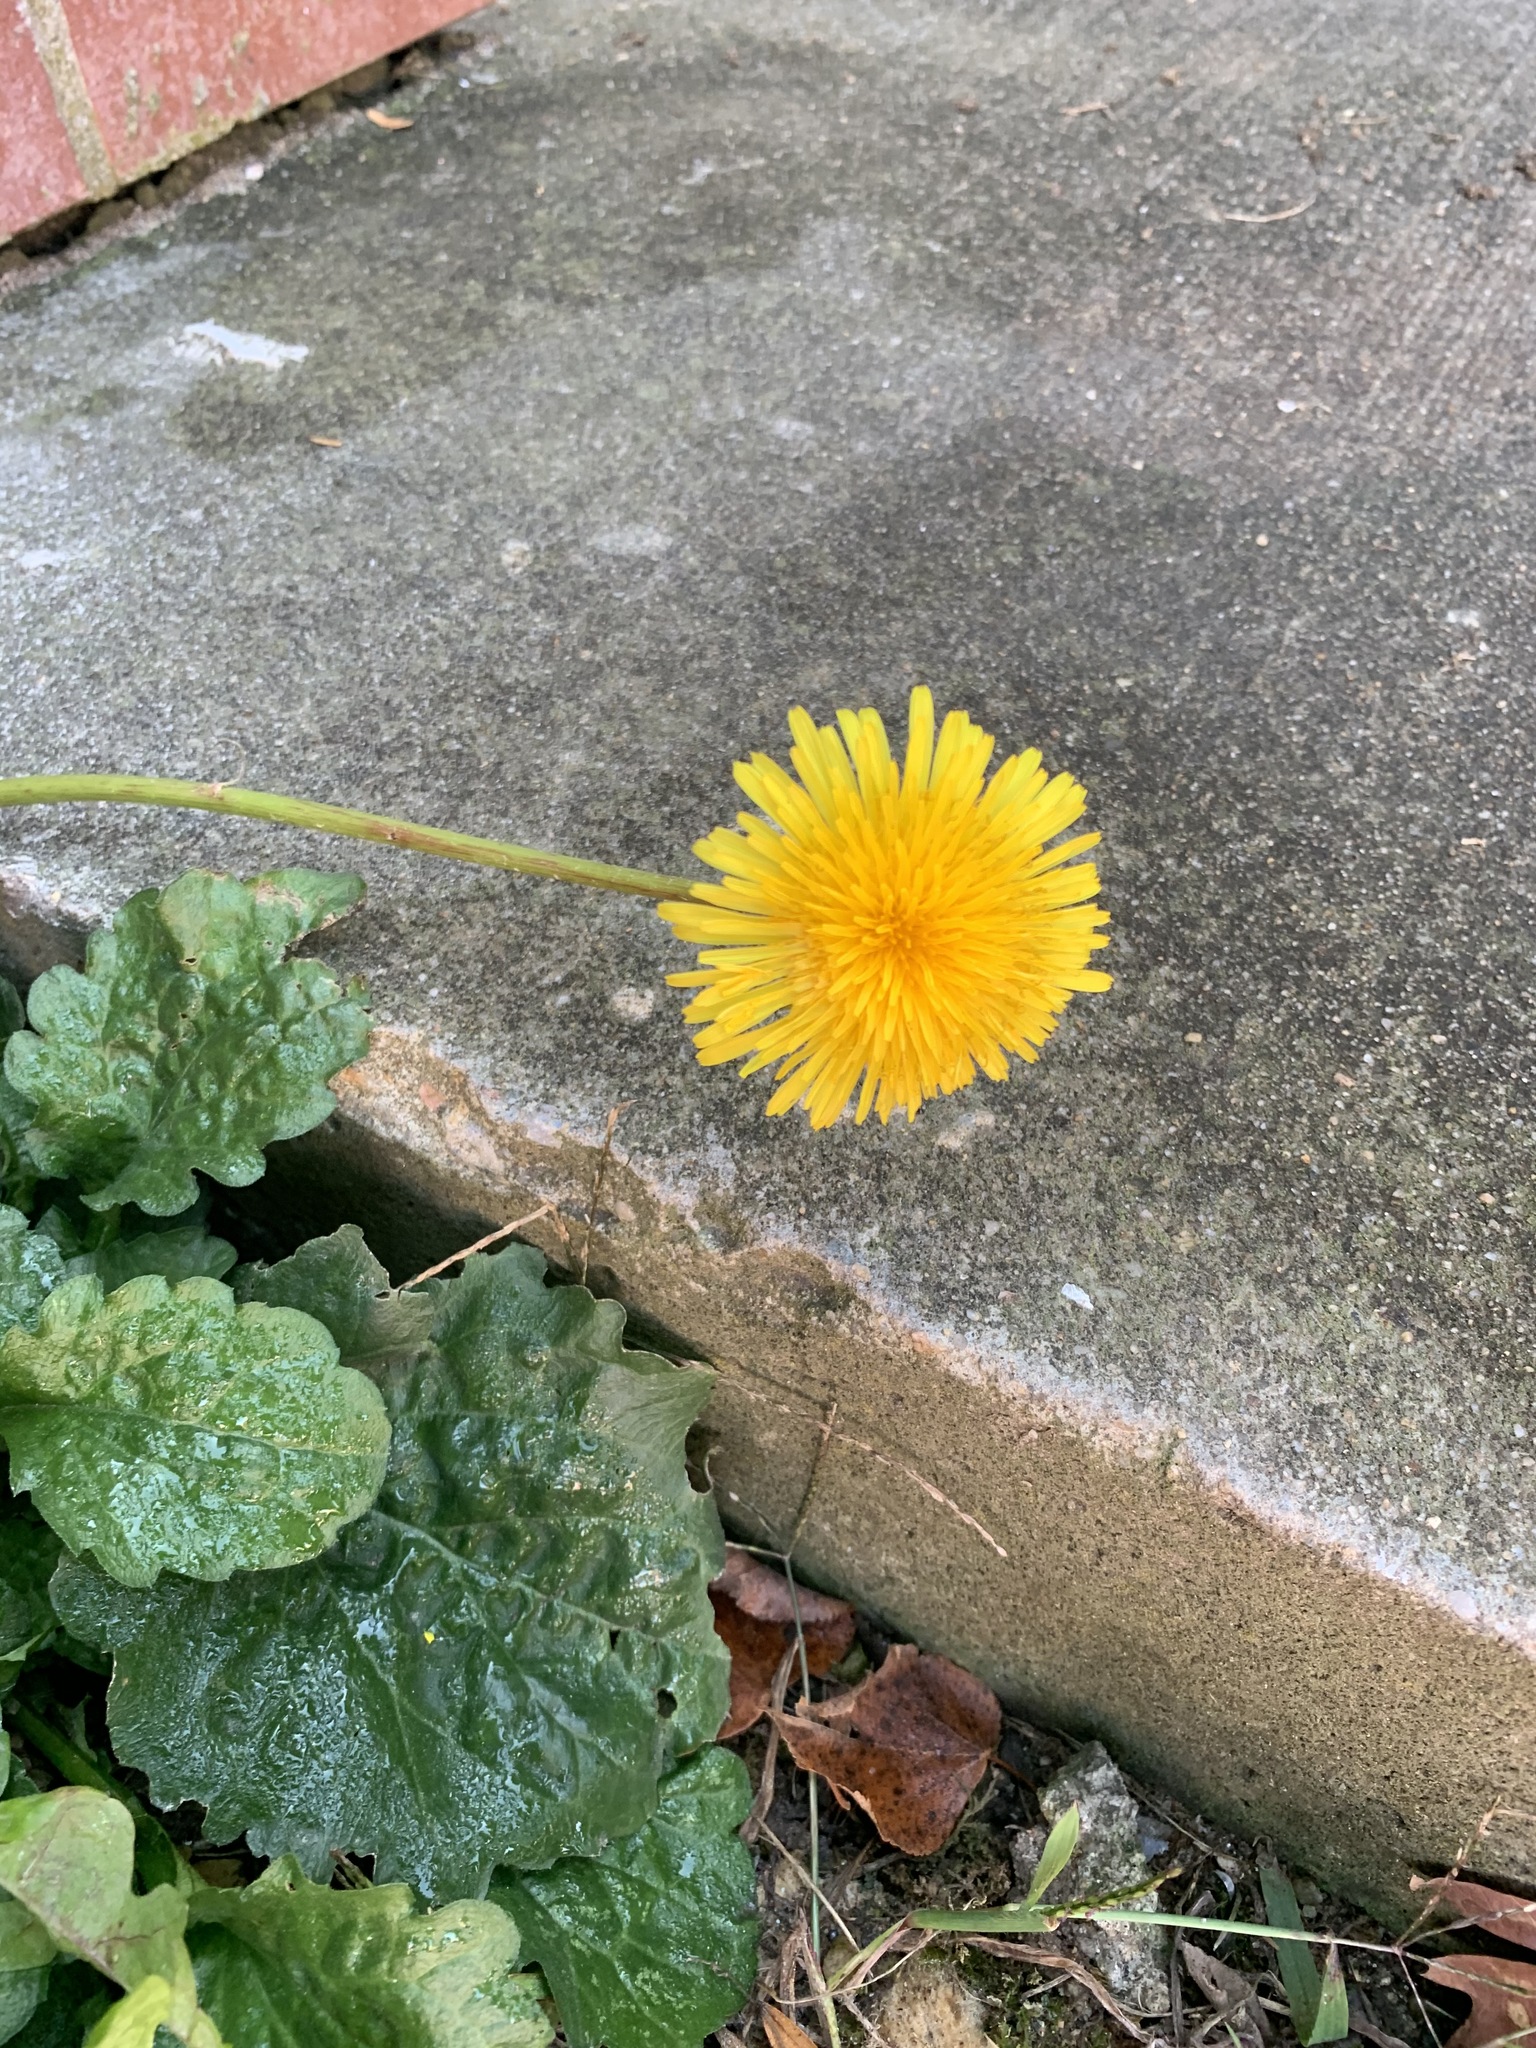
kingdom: Plantae
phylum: Tracheophyta
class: Magnoliopsida
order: Asterales
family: Asteraceae
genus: Taraxacum
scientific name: Taraxacum officinale
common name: Common dandelion
